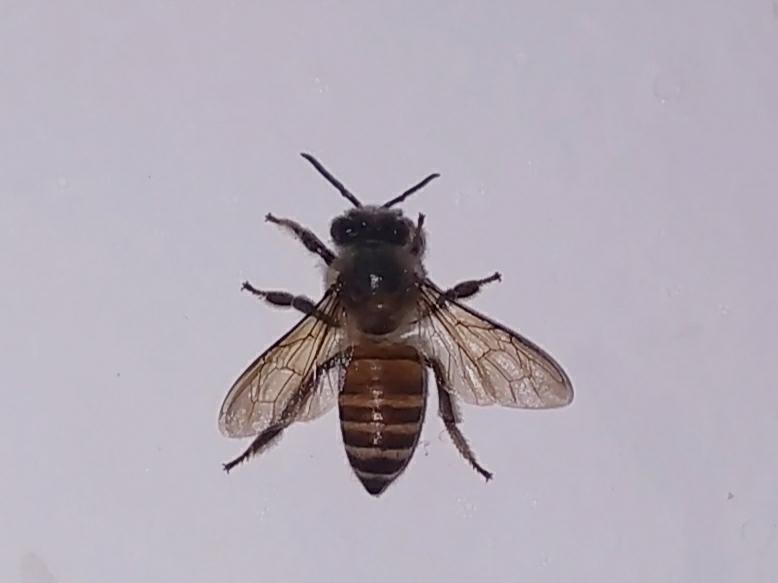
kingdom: Animalia
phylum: Arthropoda
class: Insecta
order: Hymenoptera
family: Apidae
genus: Apis
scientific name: Apis cerana
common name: Honey bee
